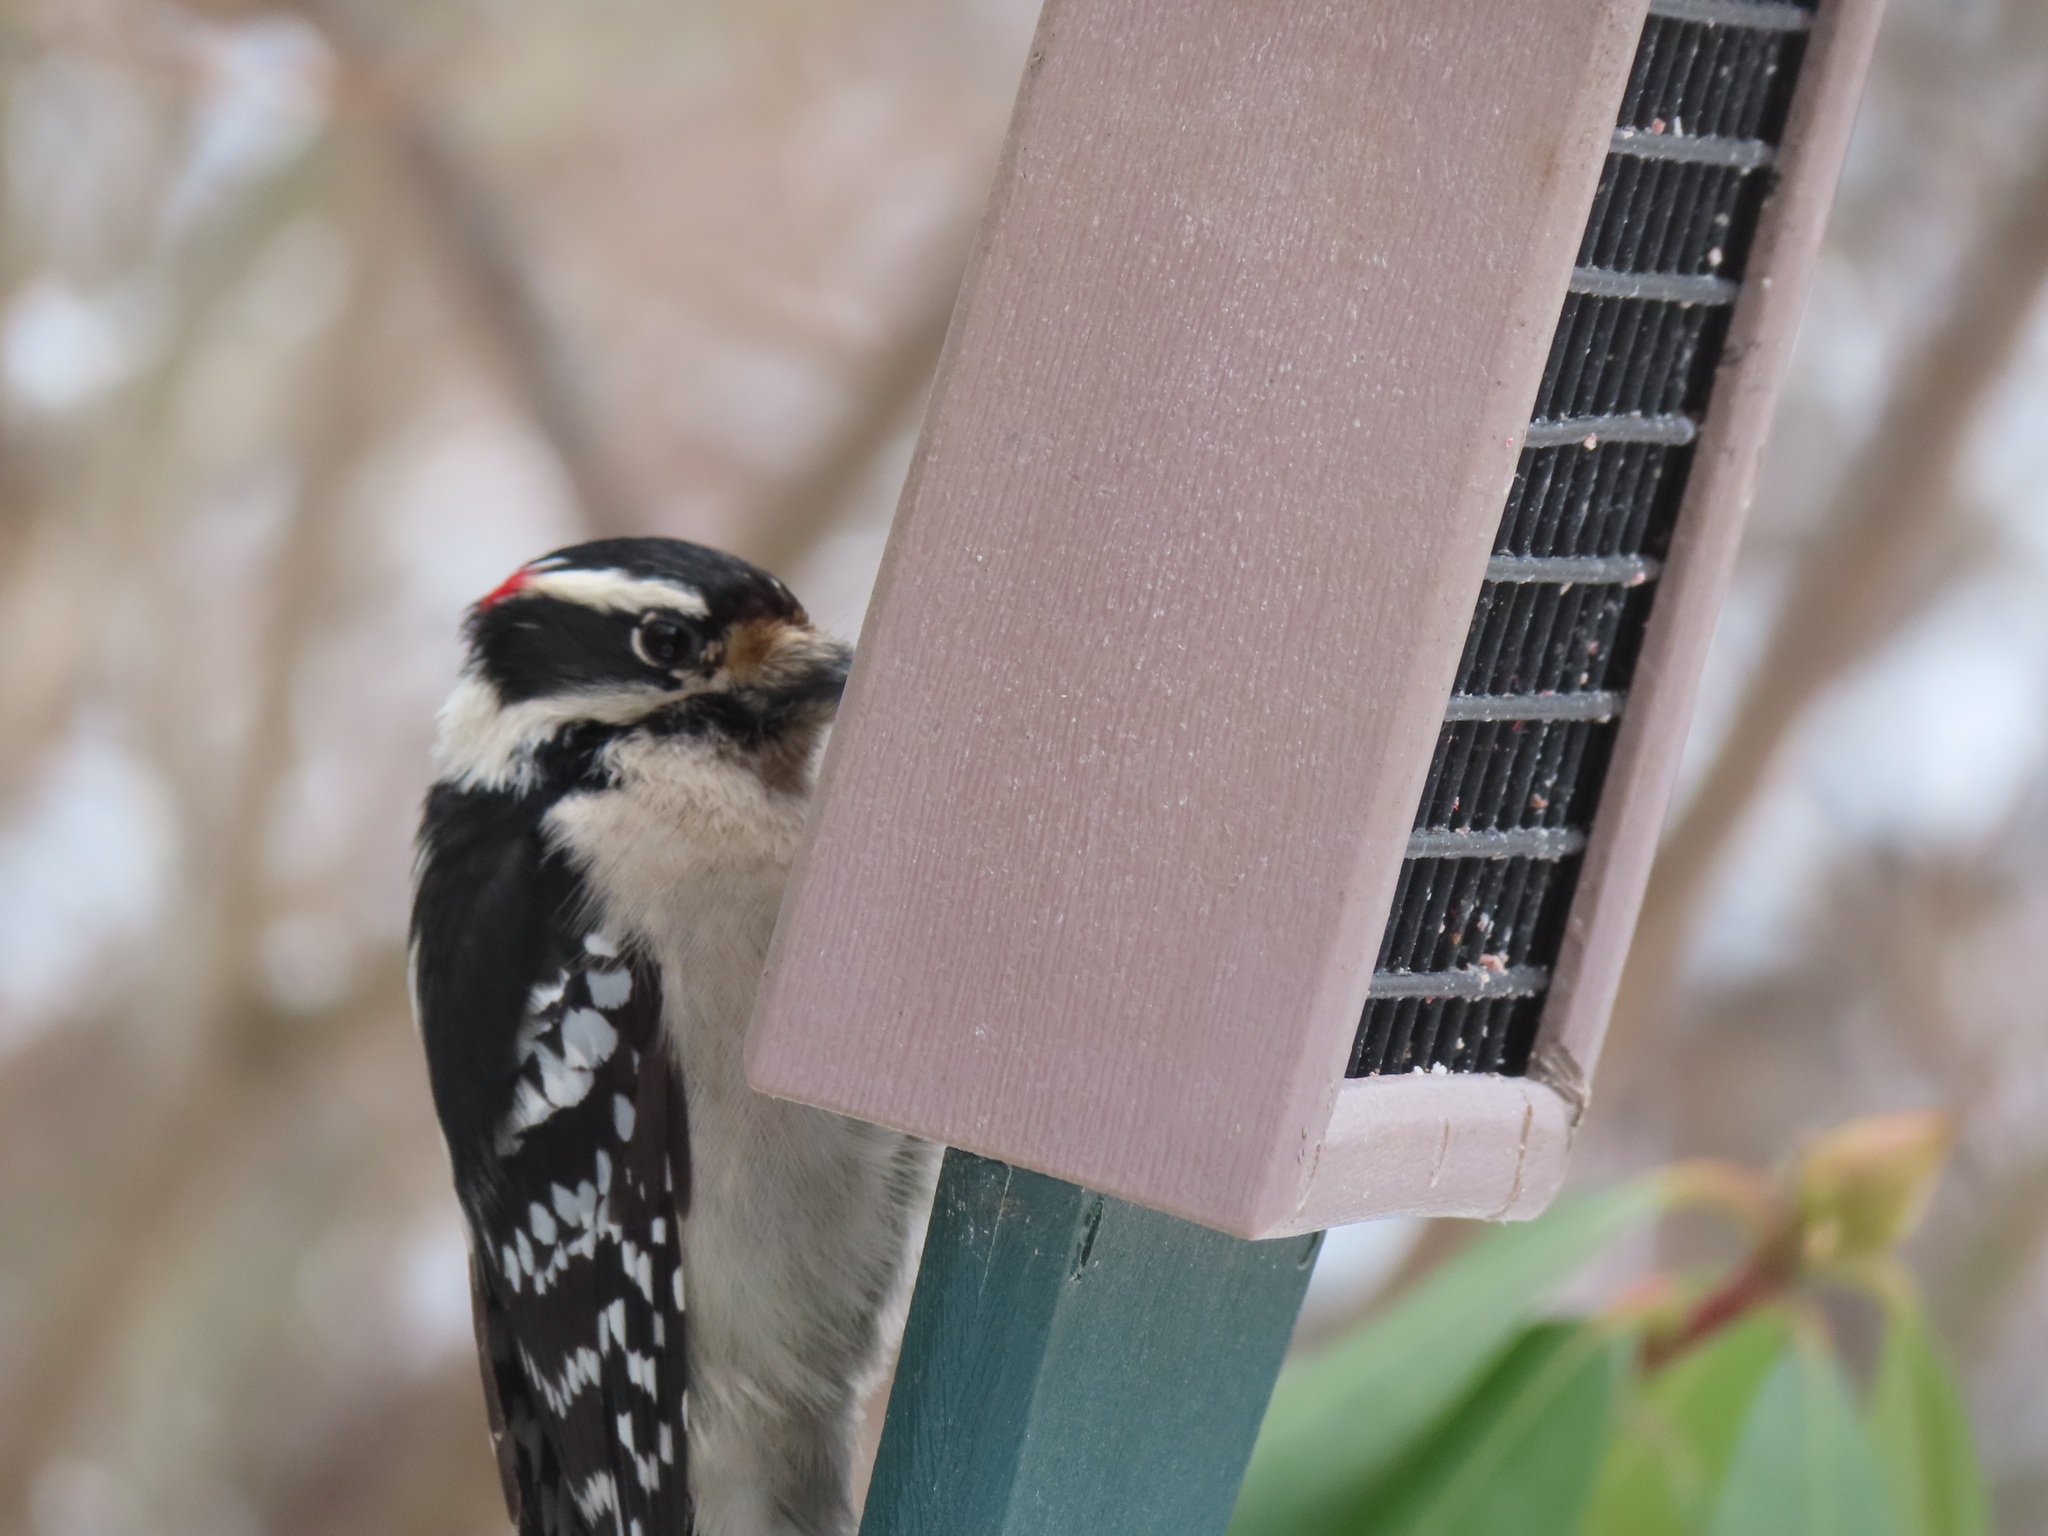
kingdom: Animalia
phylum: Chordata
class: Aves
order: Piciformes
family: Picidae
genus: Dryobates
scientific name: Dryobates pubescens
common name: Downy woodpecker
